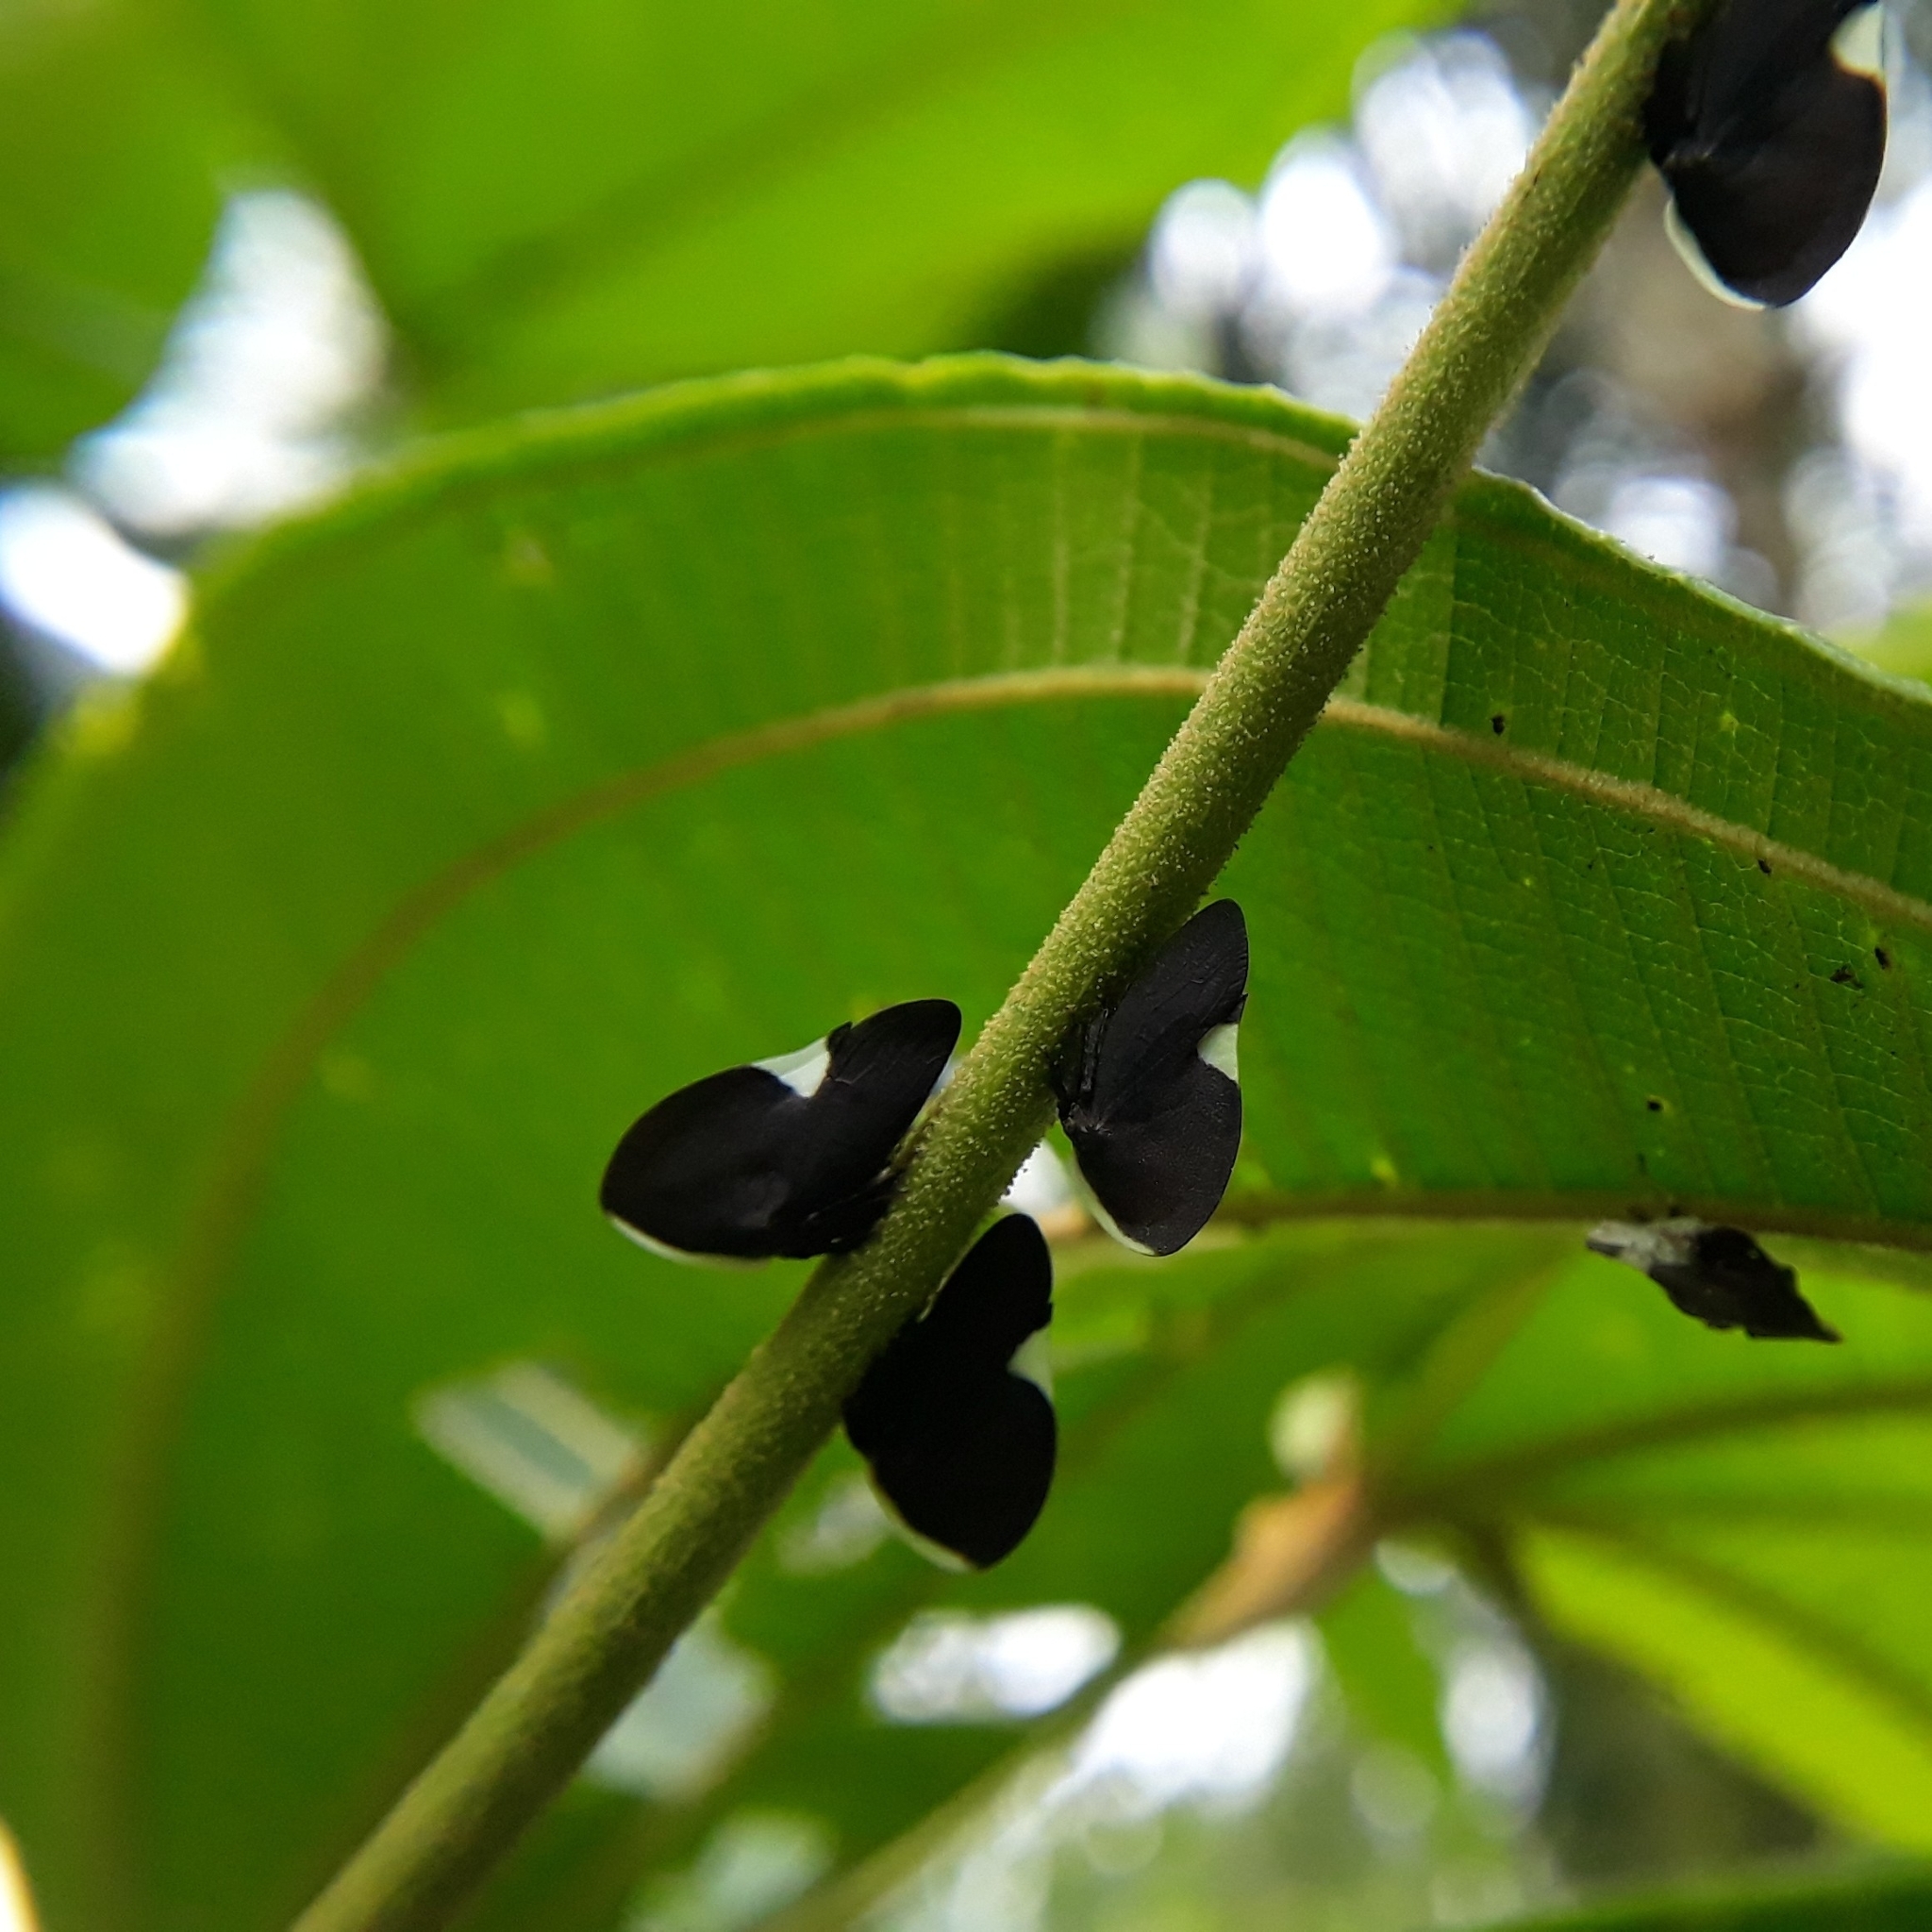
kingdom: Animalia
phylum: Arthropoda
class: Insecta
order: Hemiptera
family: Membracidae
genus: Membracis
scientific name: Membracis dorsata
